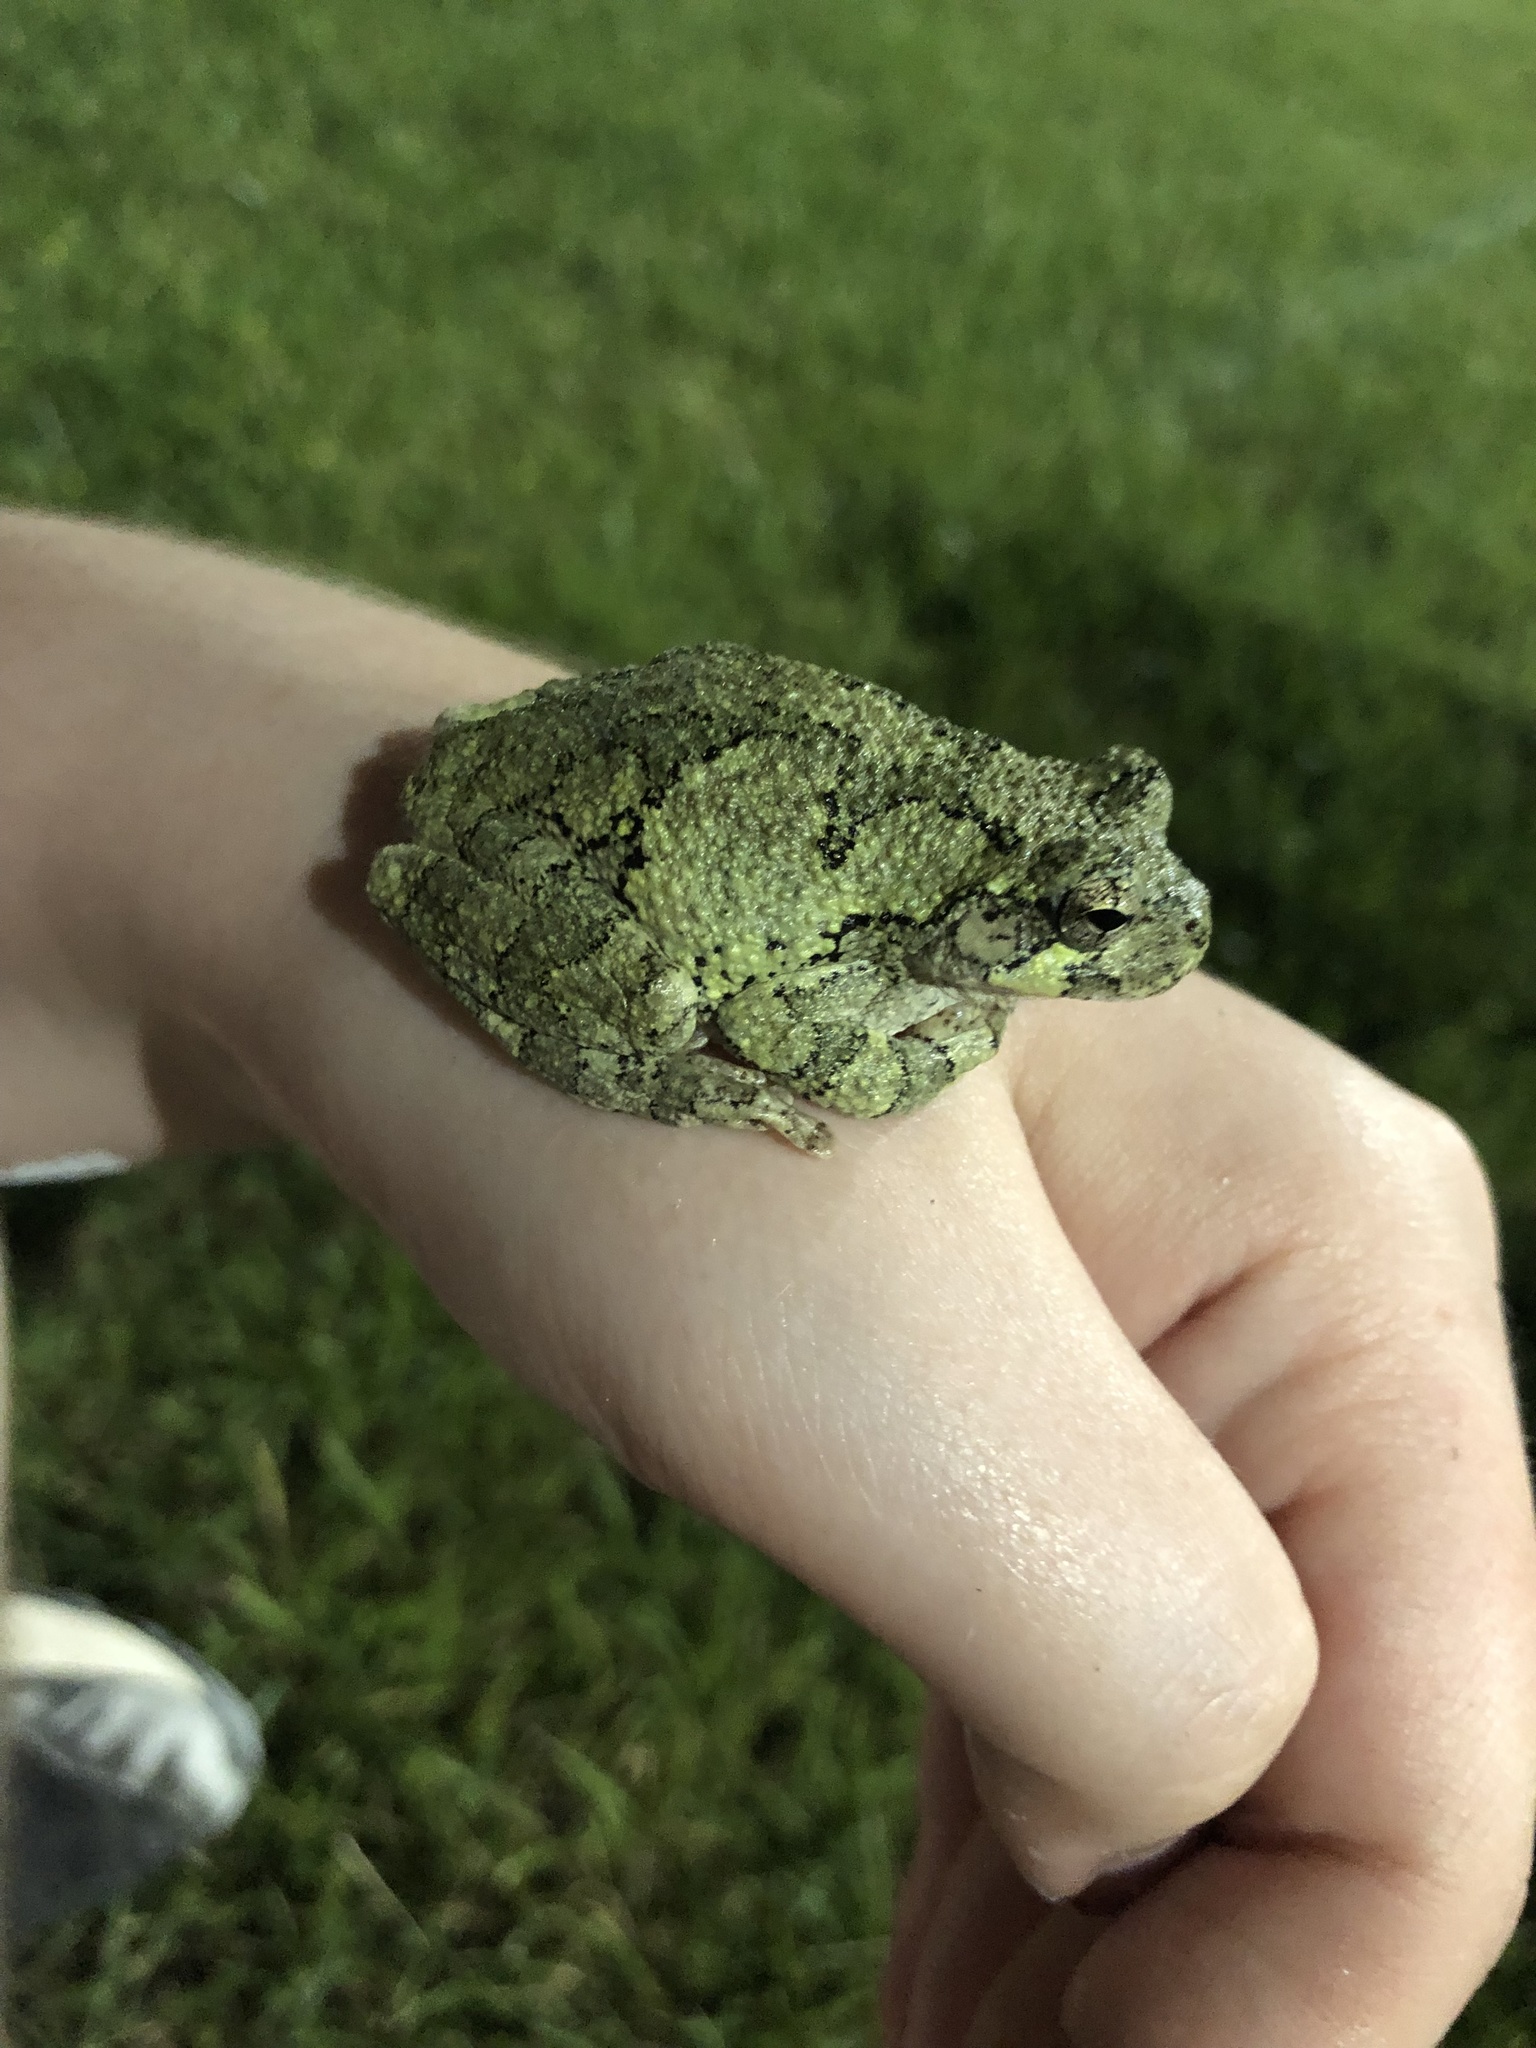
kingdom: Animalia
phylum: Chordata
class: Amphibia
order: Anura
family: Hylidae
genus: Hyla
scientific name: Hyla
